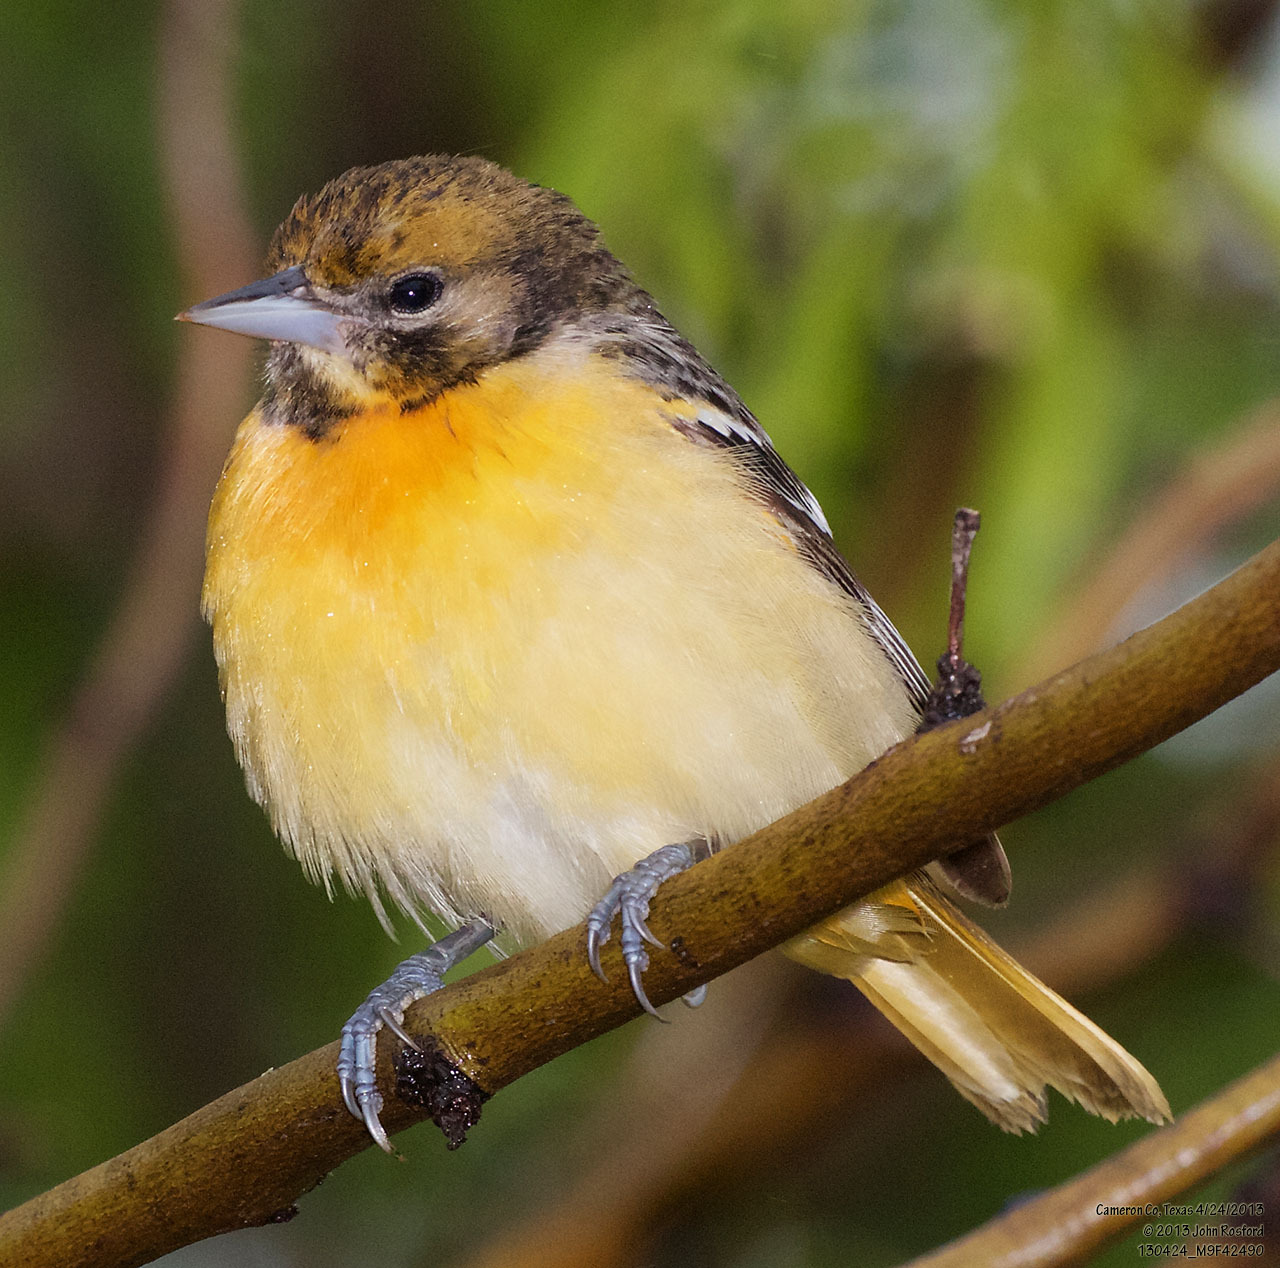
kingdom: Animalia
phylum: Chordata
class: Aves
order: Passeriformes
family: Icteridae
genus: Icterus
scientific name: Icterus galbula
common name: Baltimore oriole
